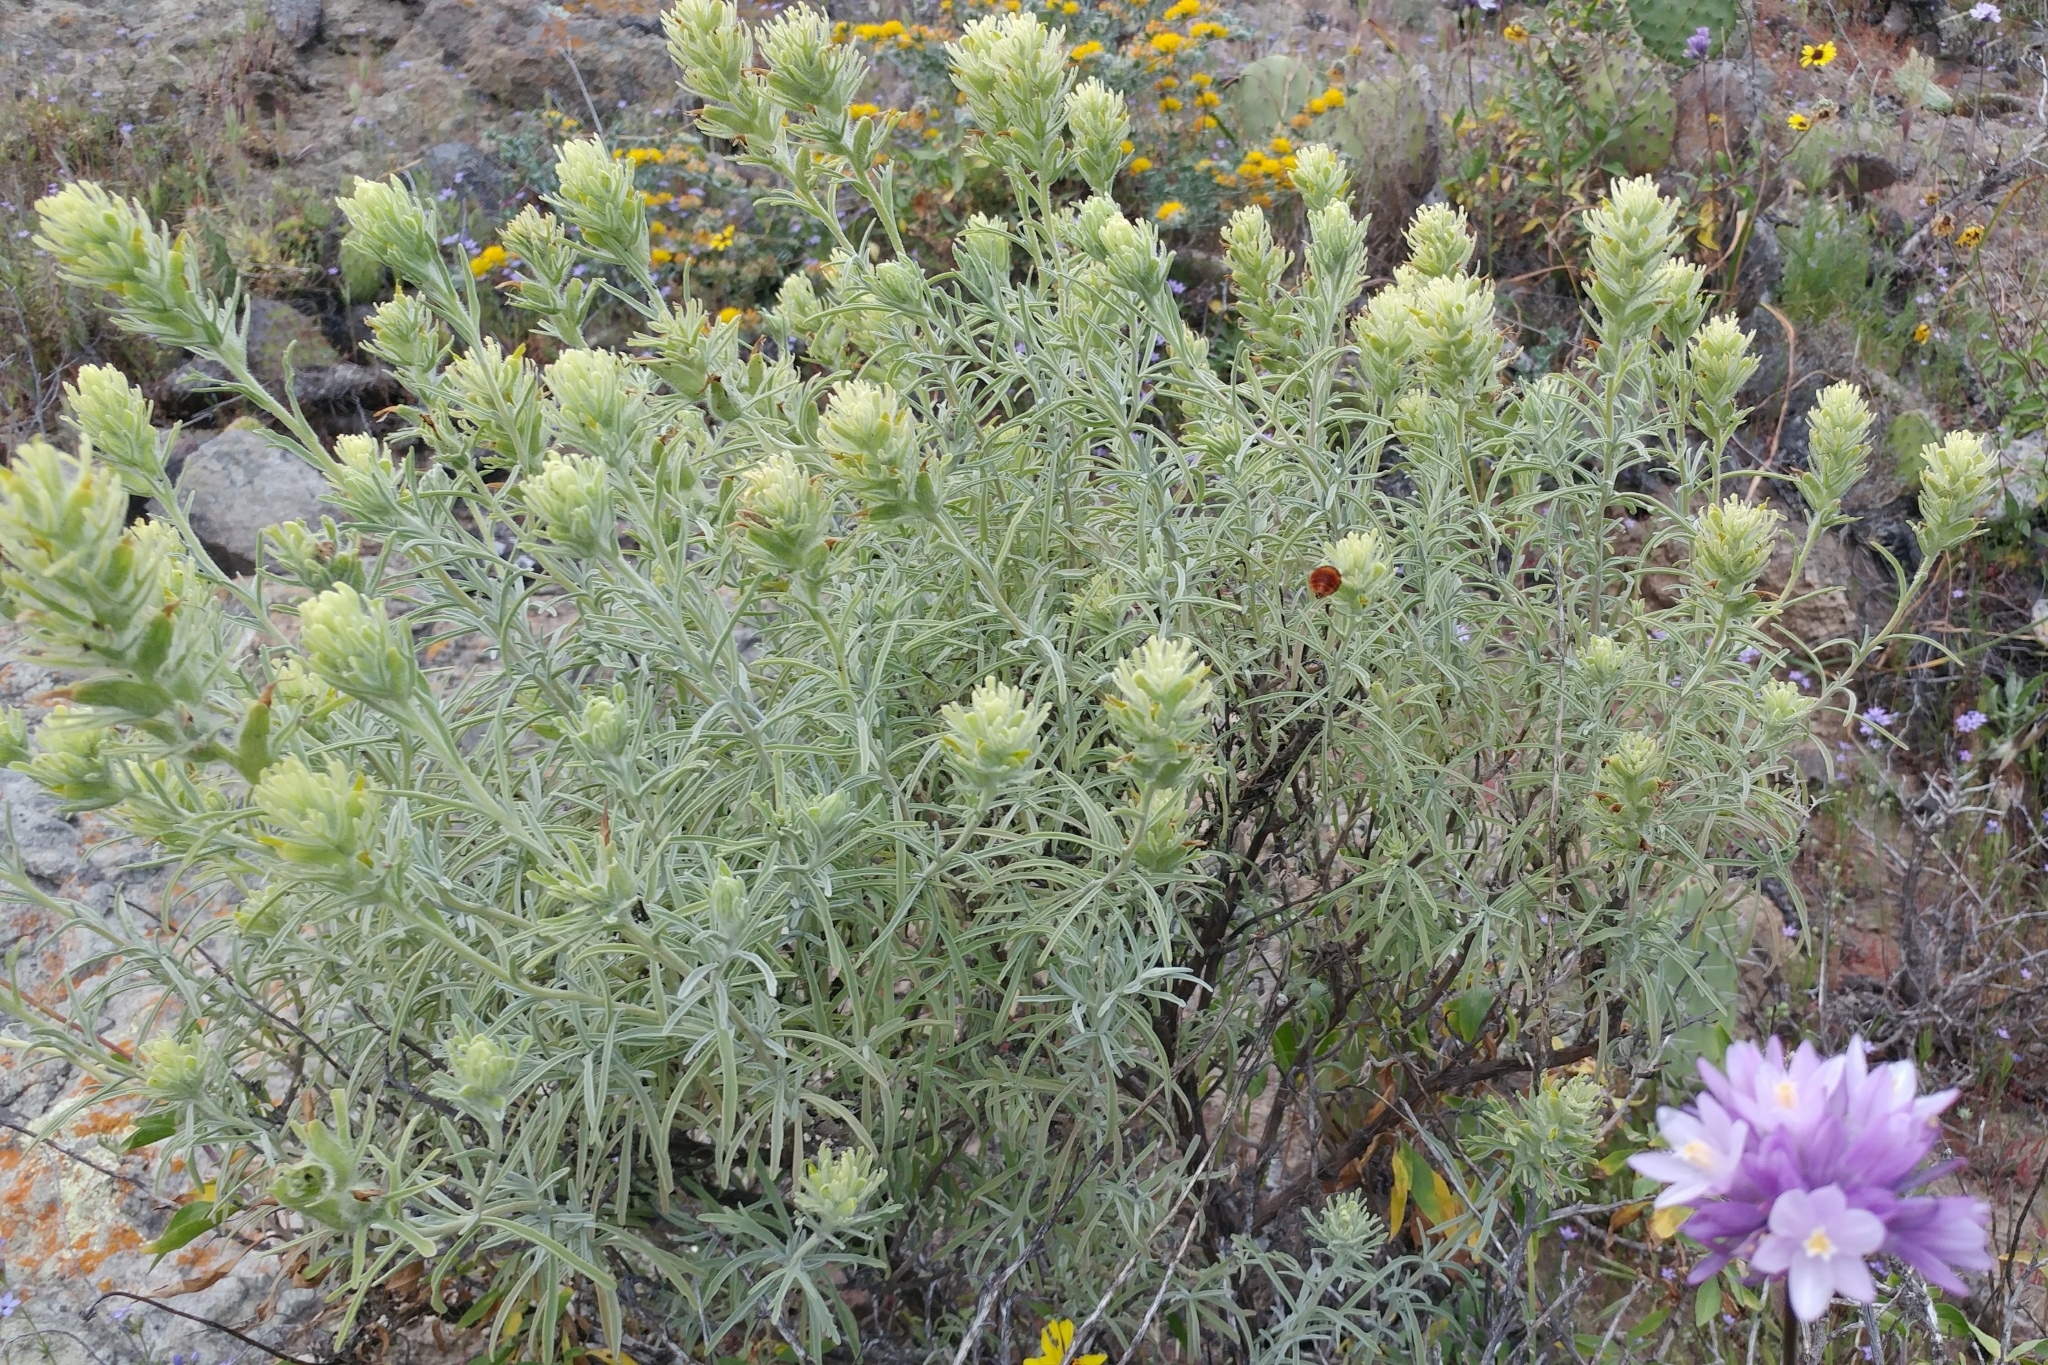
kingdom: Plantae
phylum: Tracheophyta
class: Magnoliopsida
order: Lamiales
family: Orobanchaceae
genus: Castilleja
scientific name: Castilleja grisea
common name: San clemente island indian paintbrush
